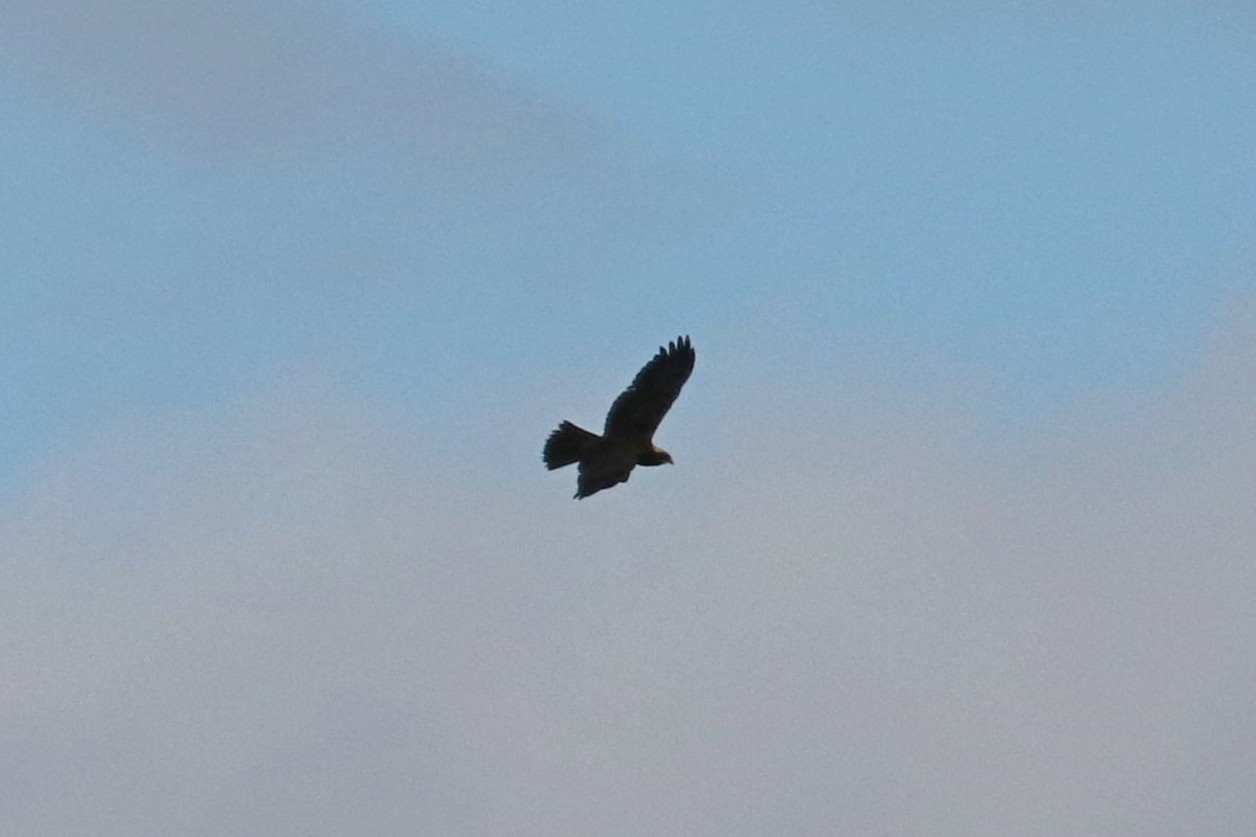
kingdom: Animalia
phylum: Chordata
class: Aves
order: Accipitriformes
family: Accipitridae
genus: Circus
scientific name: Circus aeruginosus
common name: Western marsh harrier
